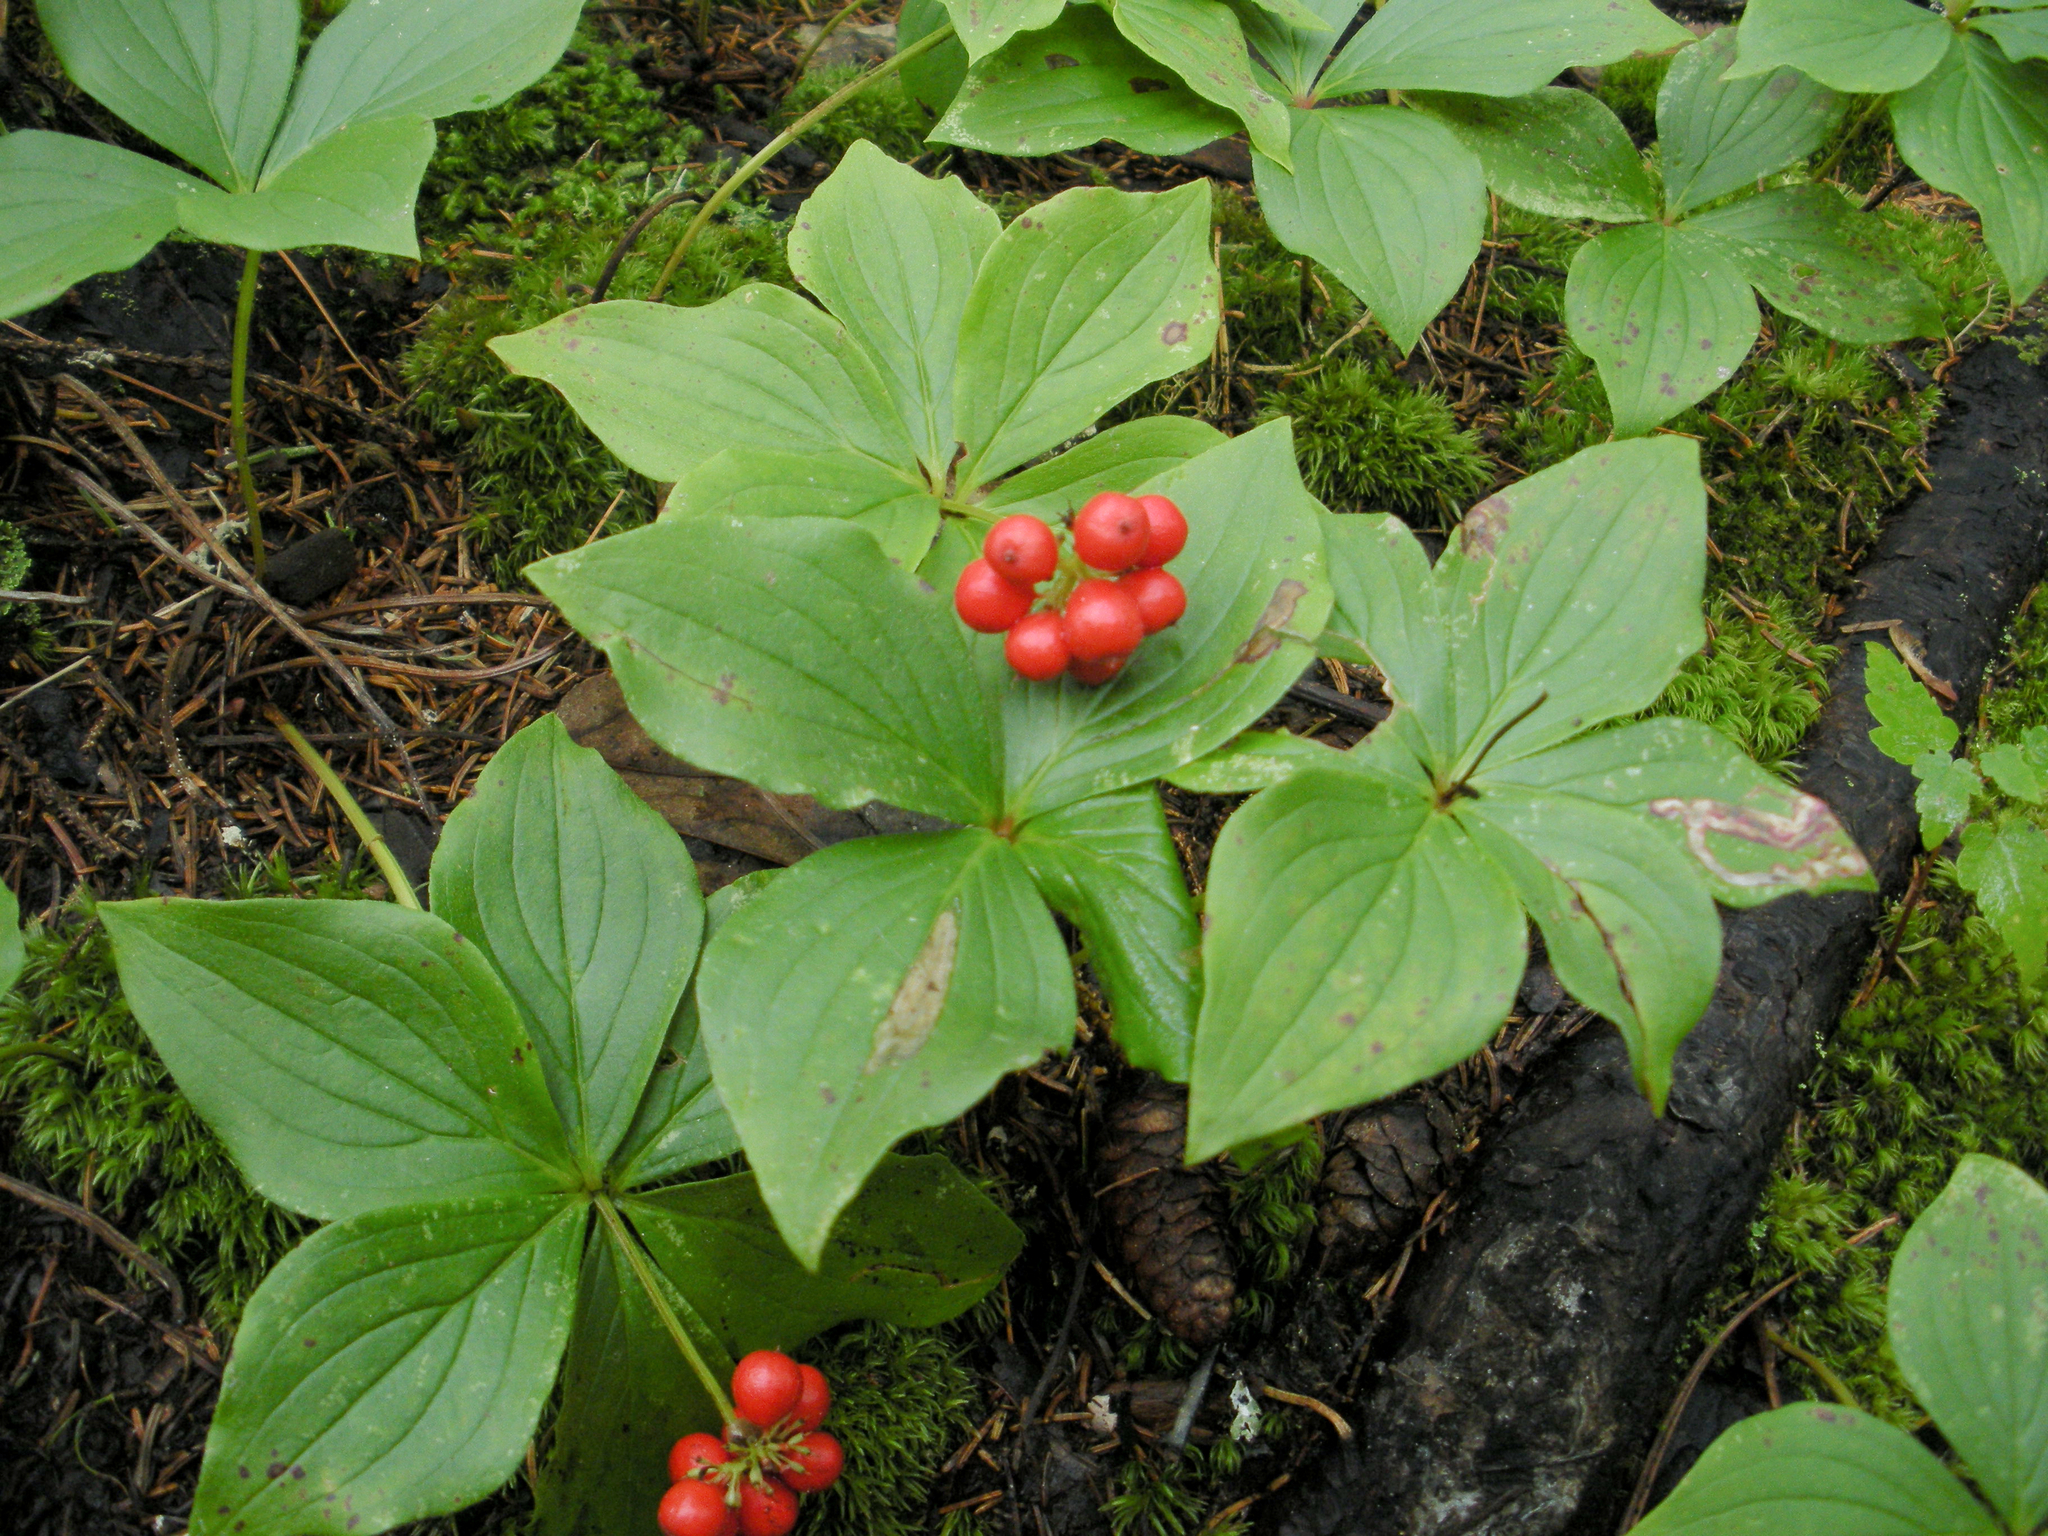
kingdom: Plantae
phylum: Tracheophyta
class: Magnoliopsida
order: Cornales
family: Cornaceae
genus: Cornus
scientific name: Cornus canadensis
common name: Creeping dogwood
